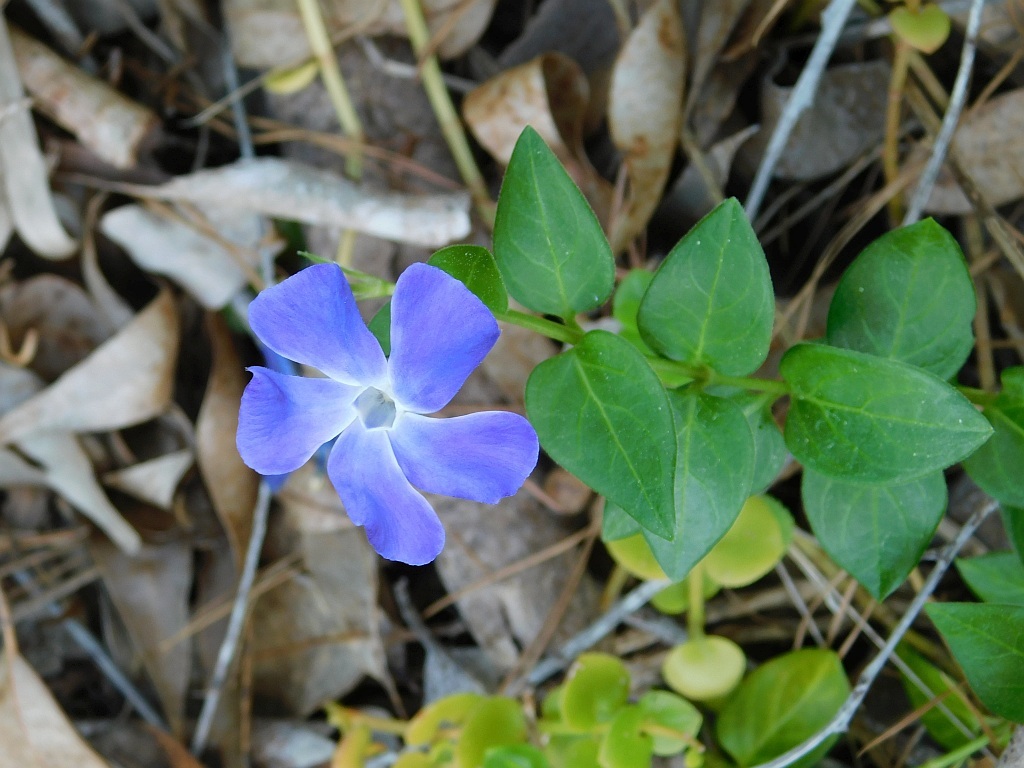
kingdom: Plantae
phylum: Tracheophyta
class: Magnoliopsida
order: Gentianales
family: Apocynaceae
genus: Vinca
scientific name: Vinca major
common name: Greater periwinkle
